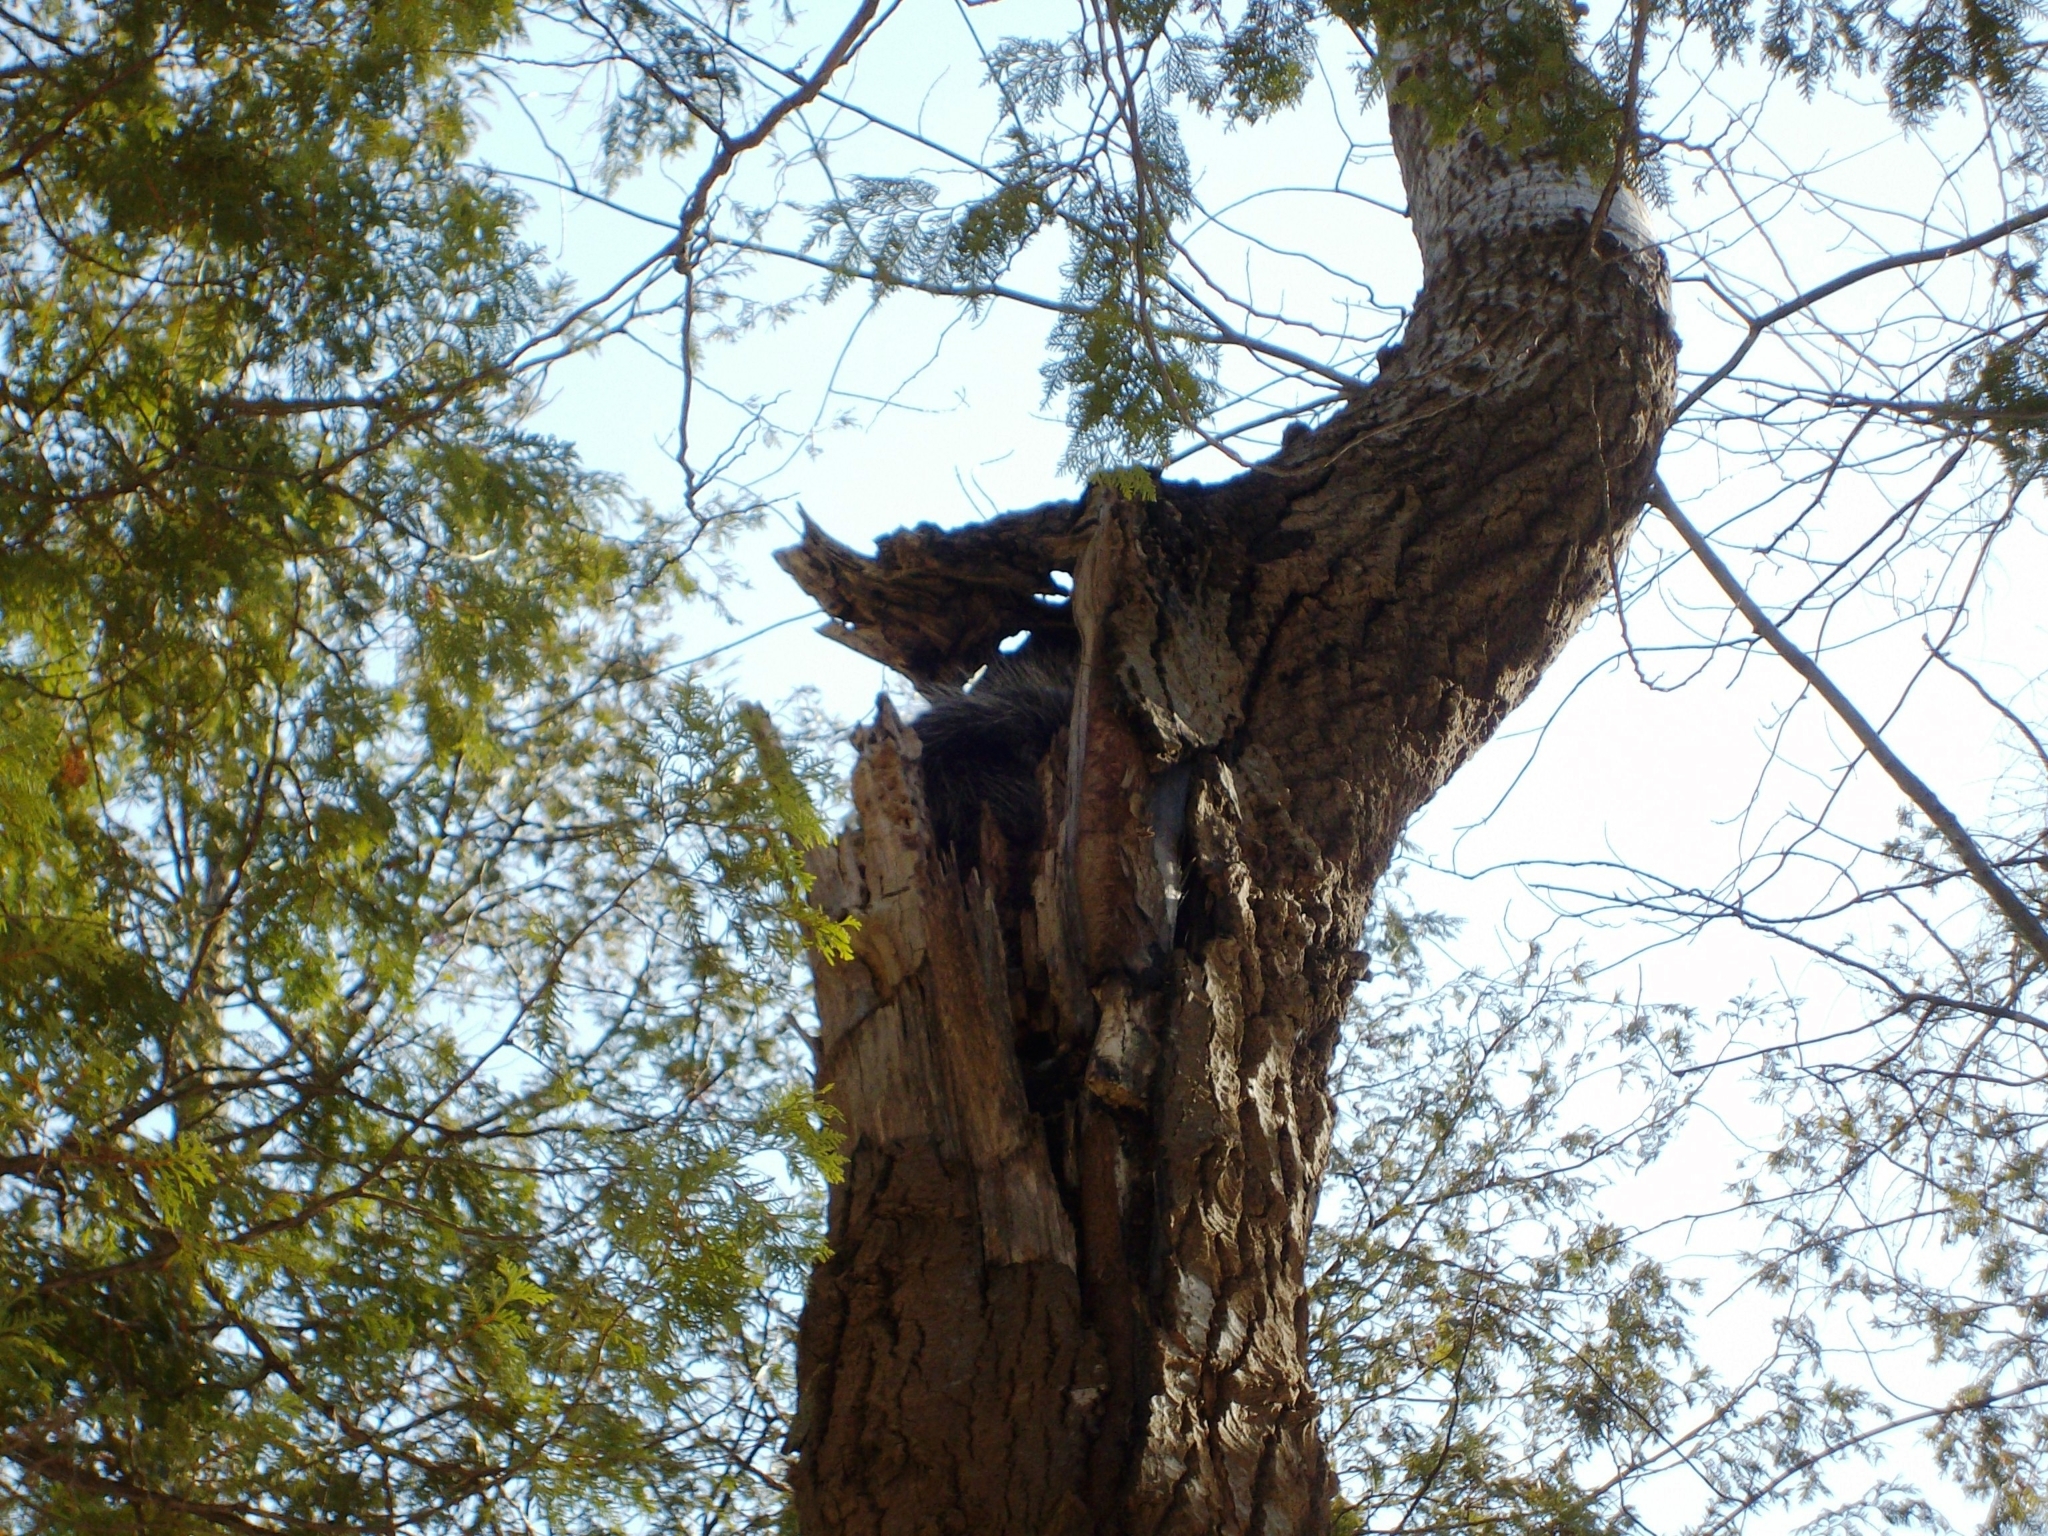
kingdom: Animalia
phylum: Chordata
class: Mammalia
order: Rodentia
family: Erethizontidae
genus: Erethizon
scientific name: Erethizon dorsatus
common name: North american porcupine
